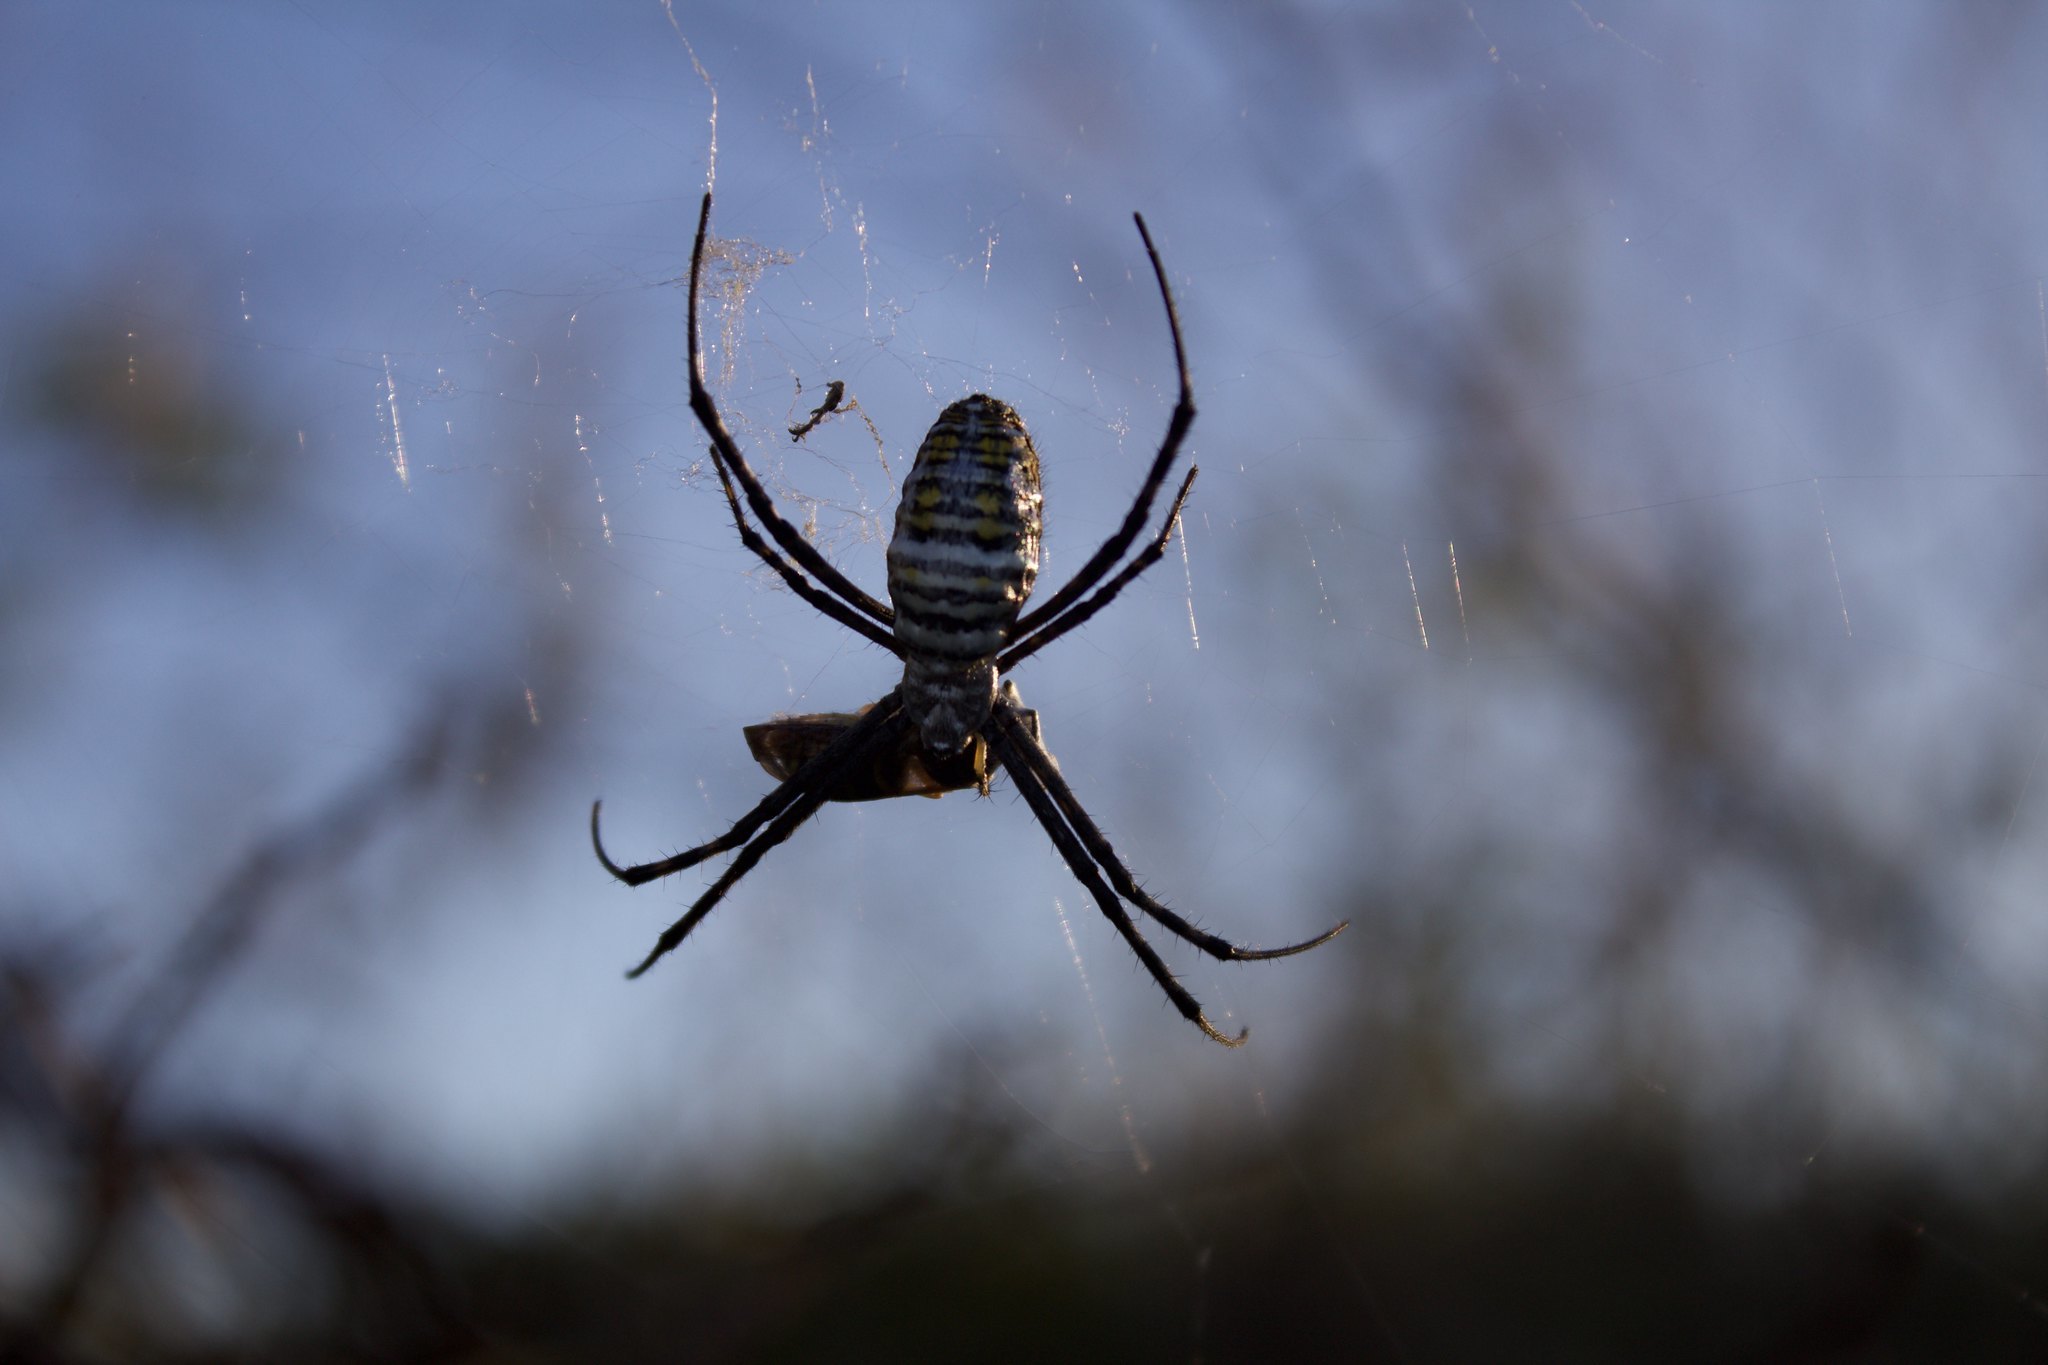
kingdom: Animalia
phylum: Arthropoda
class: Arachnida
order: Araneae
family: Araneidae
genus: Argiope
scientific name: Argiope trifasciata
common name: Banded garden spider
